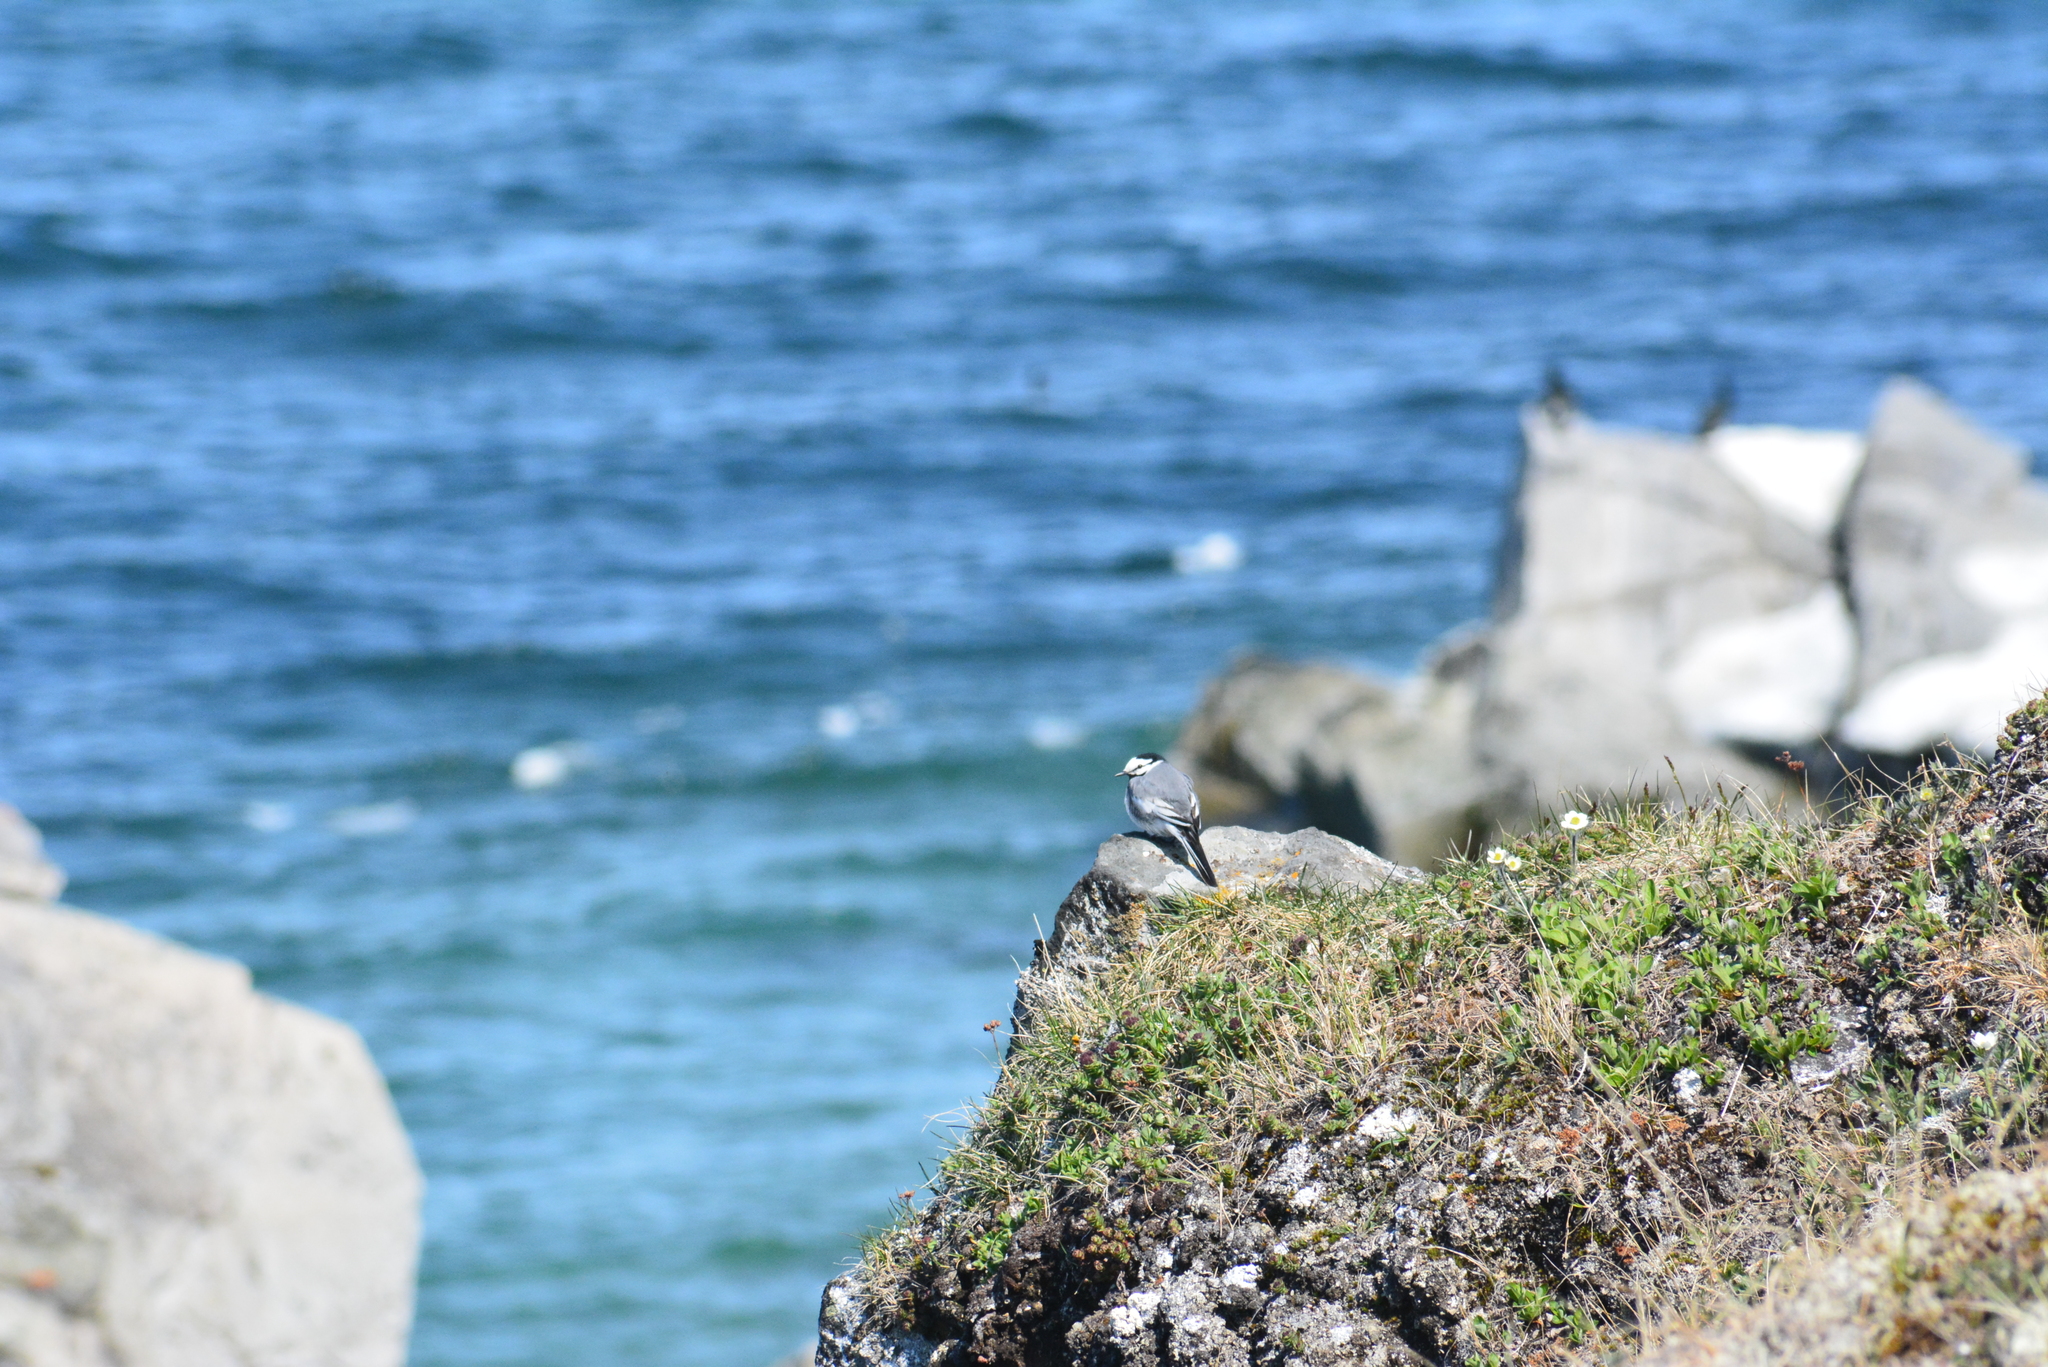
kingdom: Animalia
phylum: Chordata
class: Aves
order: Passeriformes
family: Motacillidae
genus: Motacilla
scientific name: Motacilla alba
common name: White wagtail
